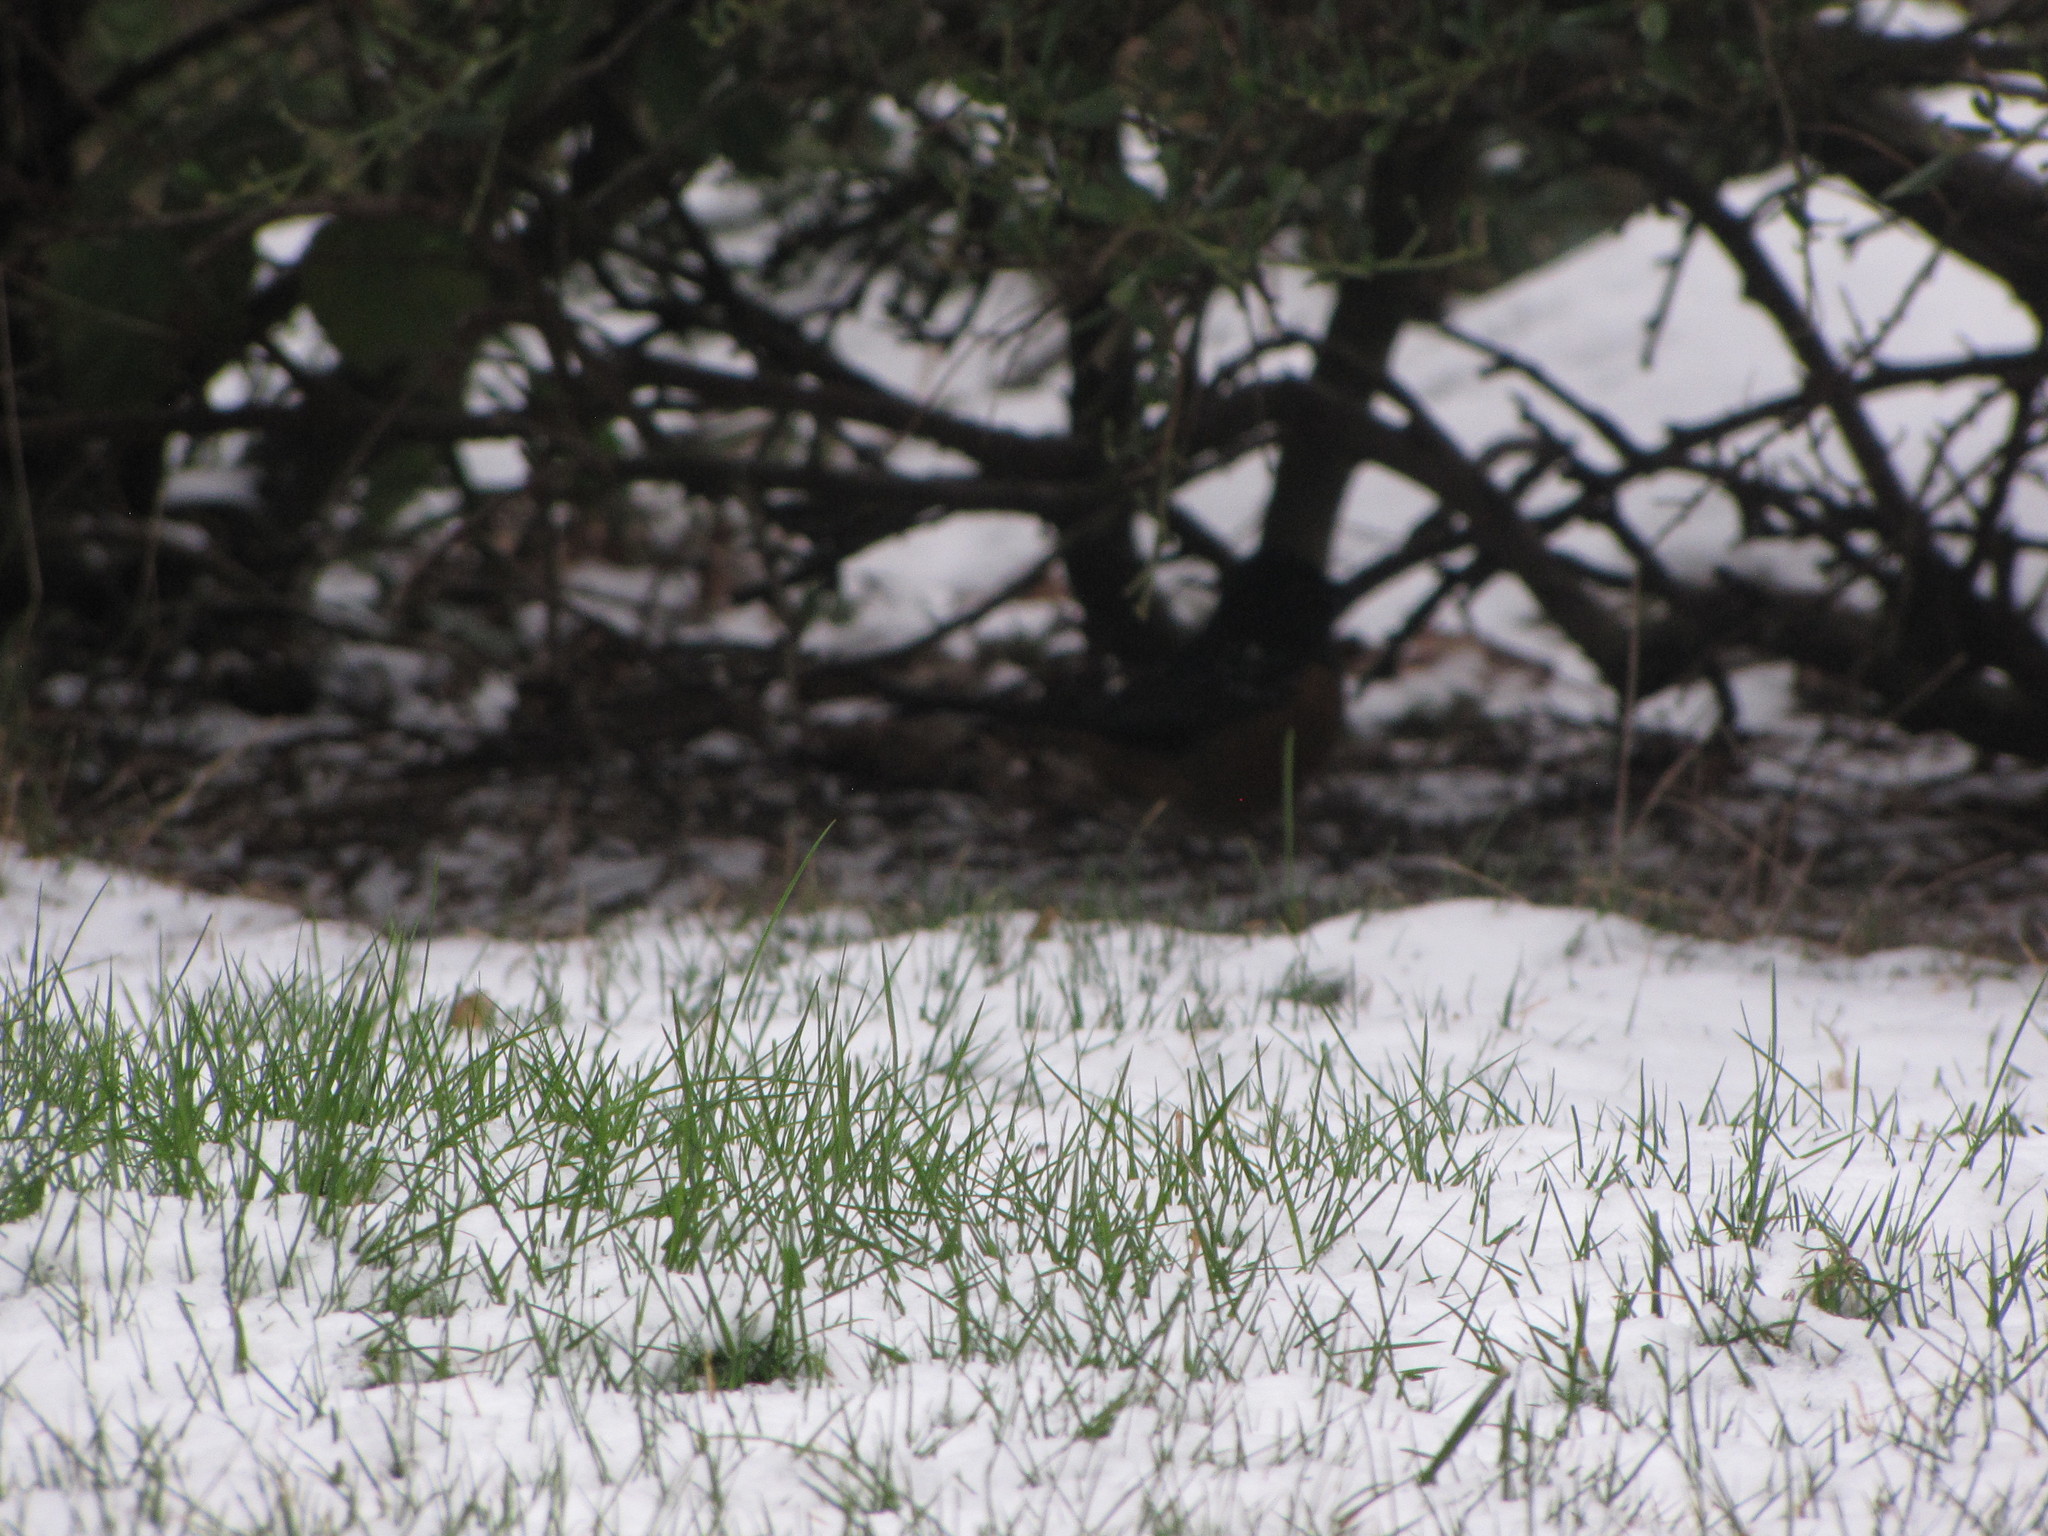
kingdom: Animalia
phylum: Chordata
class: Aves
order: Passeriformes
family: Passerellidae
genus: Pipilo
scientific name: Pipilo maculatus
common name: Spotted towhee
